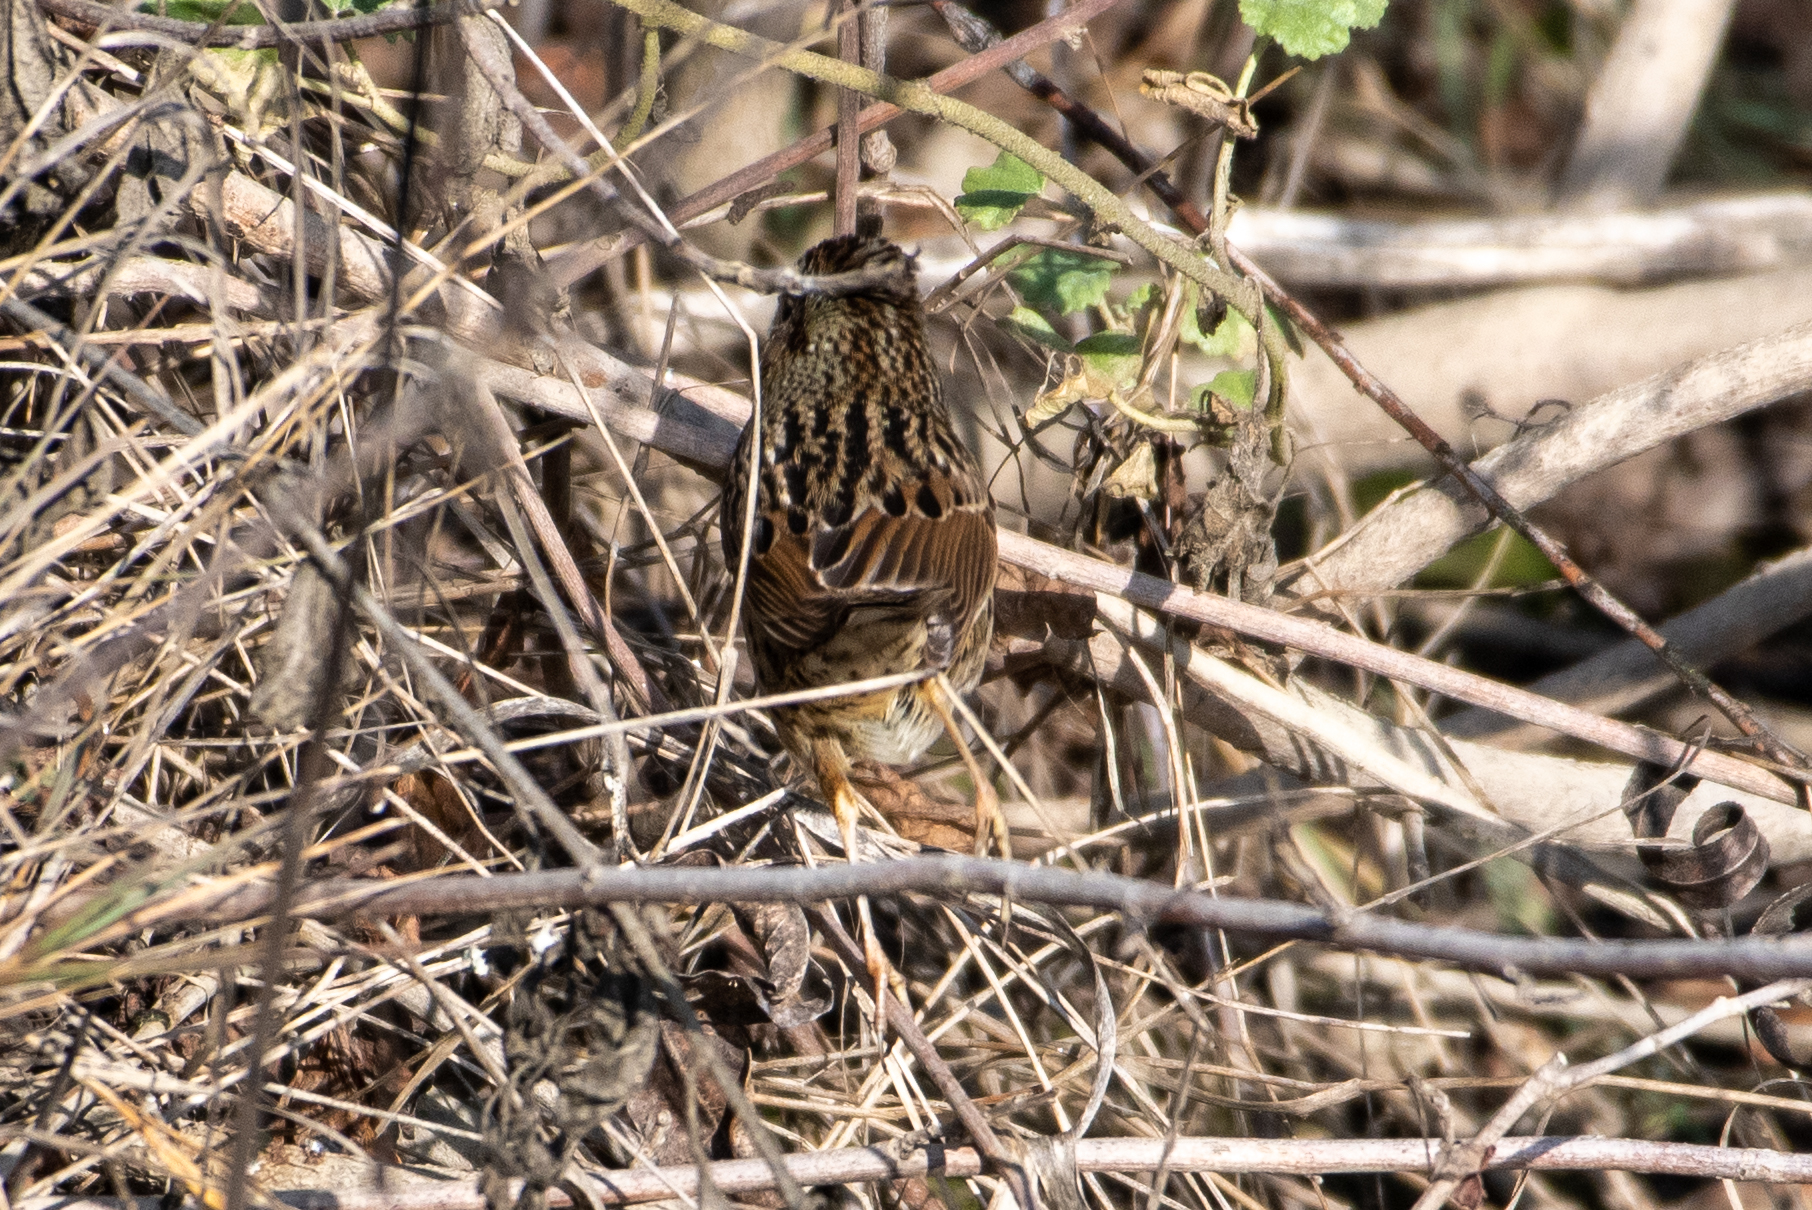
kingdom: Animalia
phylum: Chordata
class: Aves
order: Passeriformes
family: Passerellidae
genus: Melospiza
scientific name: Melospiza lincolnii
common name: Lincoln's sparrow
